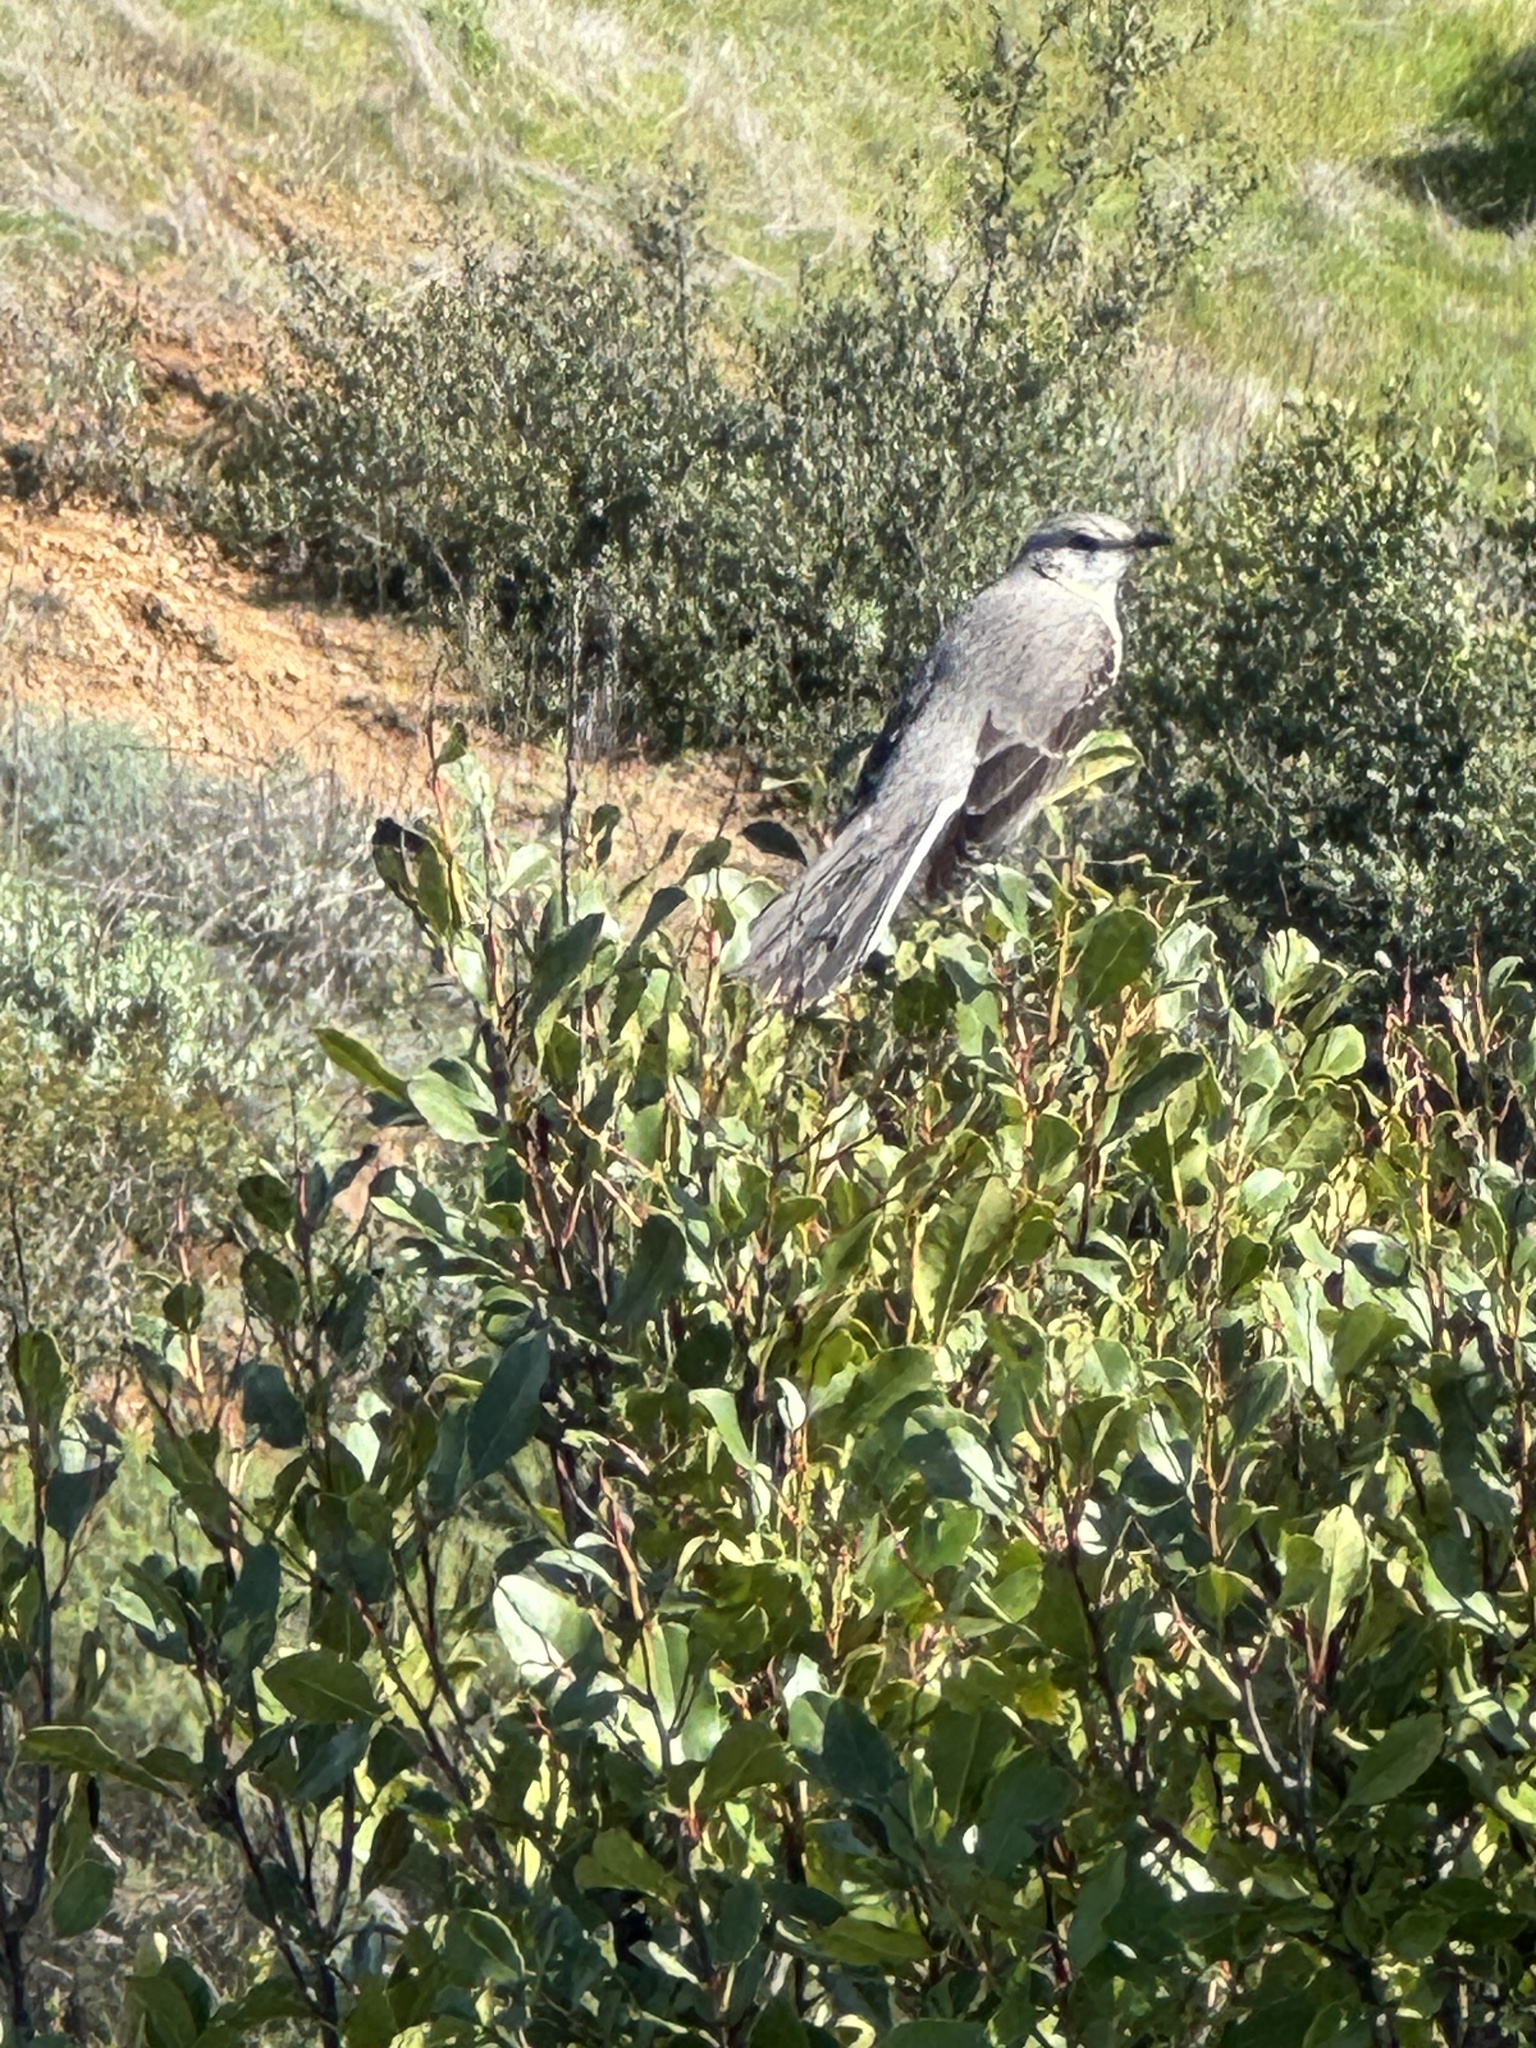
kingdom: Animalia
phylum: Chordata
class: Aves
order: Passeriformes
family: Mimidae
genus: Mimus
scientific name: Mimus polyglottos
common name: Northern mockingbird
